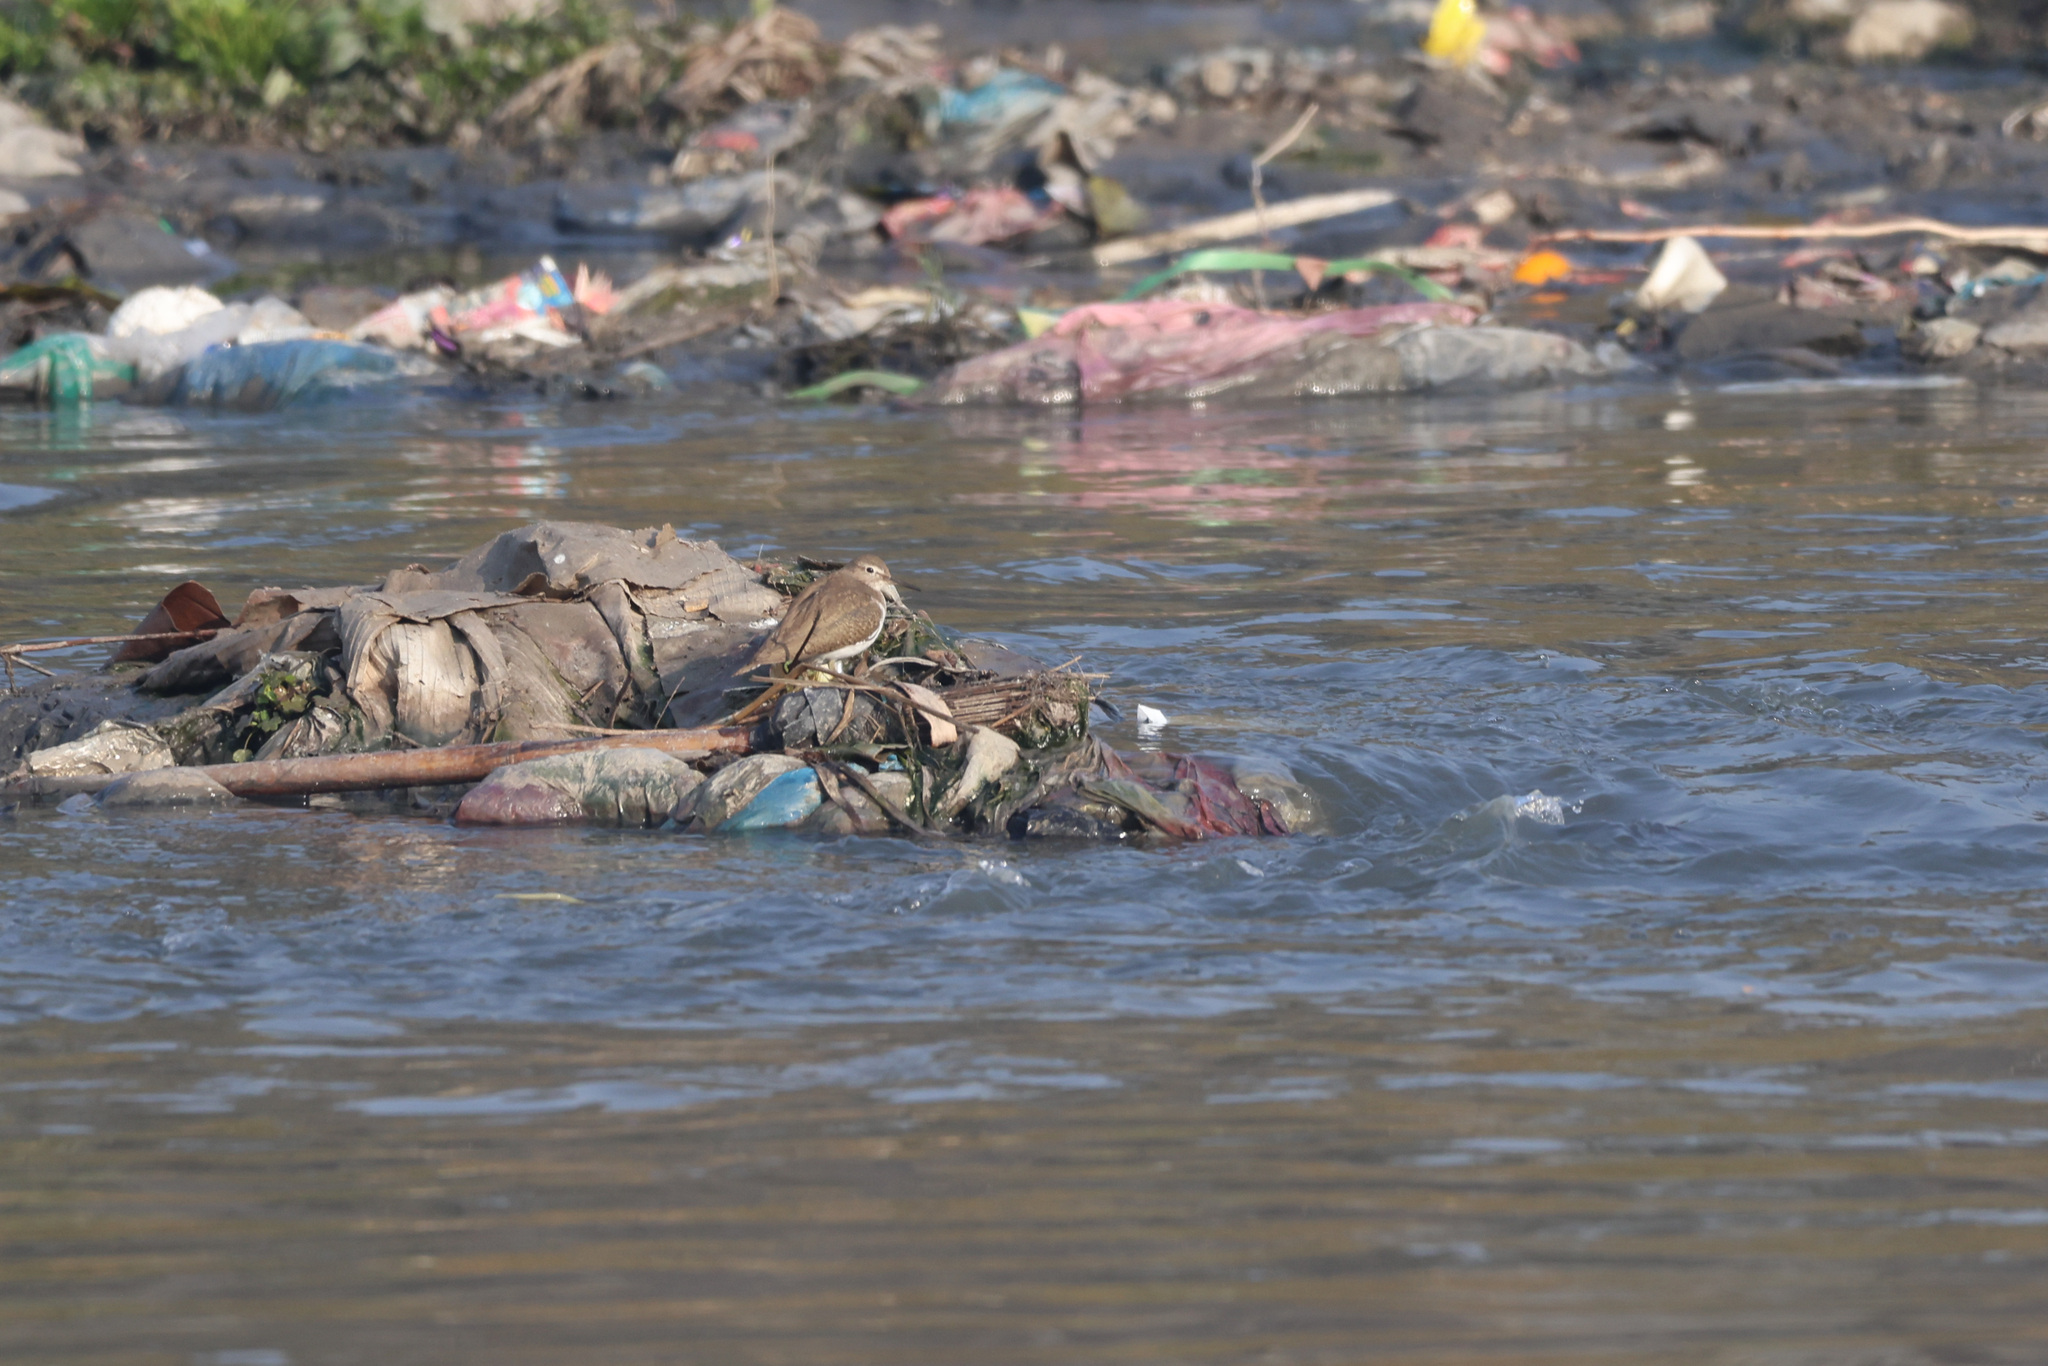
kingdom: Animalia
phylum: Chordata
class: Aves
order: Charadriiformes
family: Scolopacidae
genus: Actitis
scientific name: Actitis hypoleucos
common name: Common sandpiper
